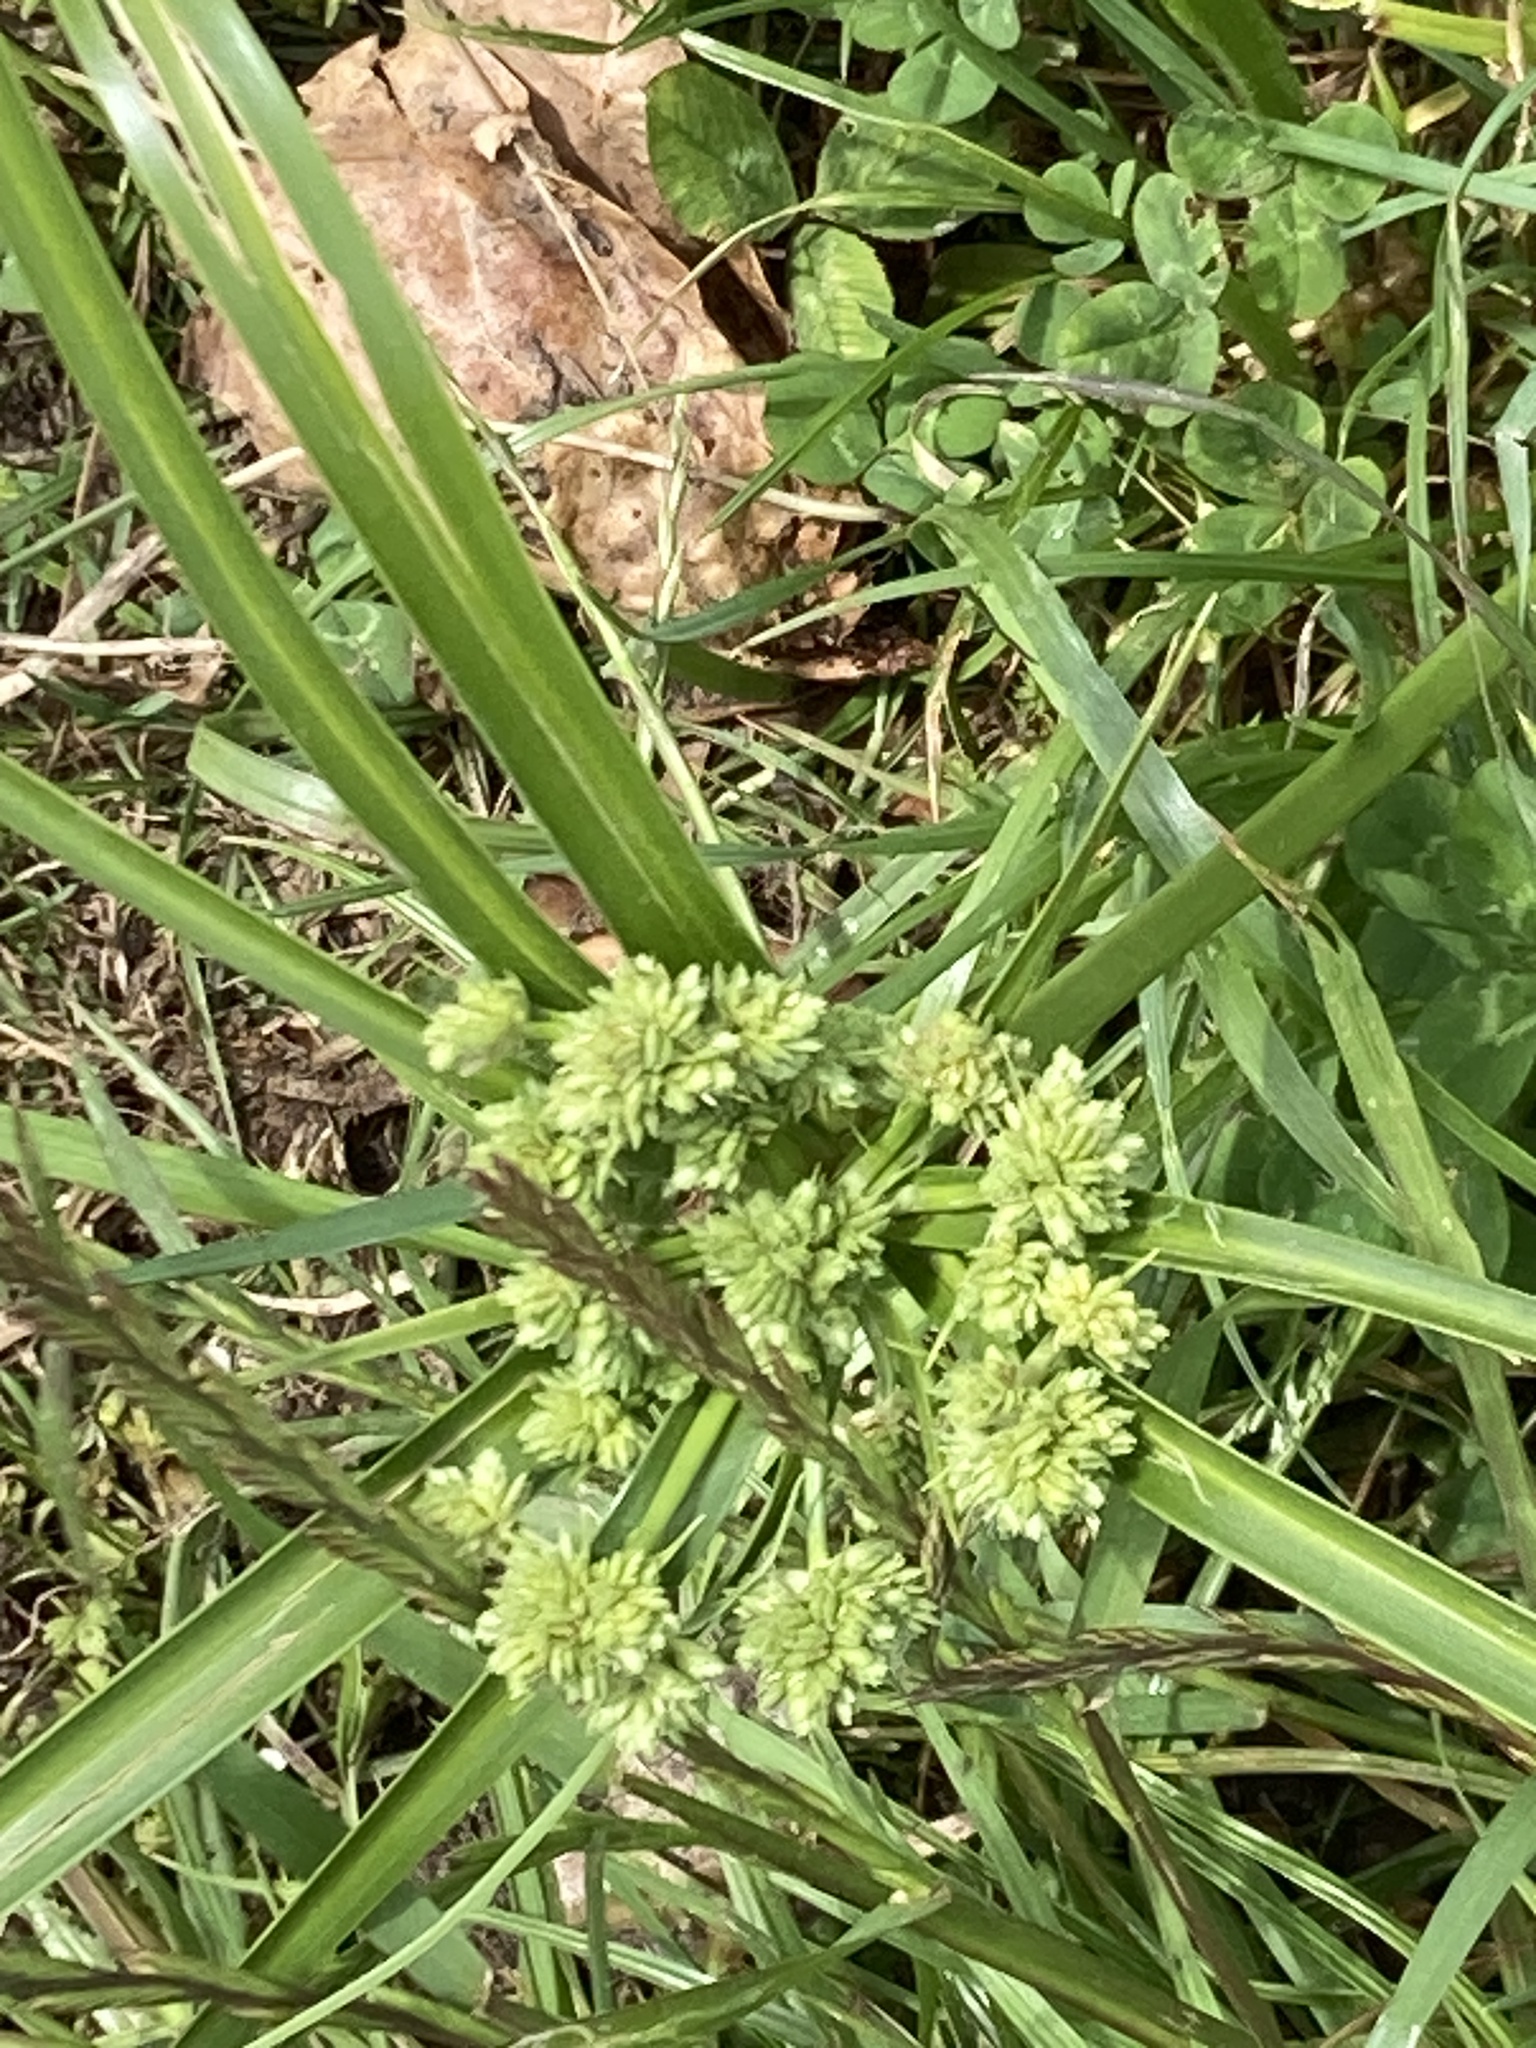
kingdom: Plantae
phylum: Tracheophyta
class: Liliopsida
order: Poales
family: Cyperaceae
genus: Cyperus
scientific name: Cyperus eragrostis
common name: Tall flatsedge
